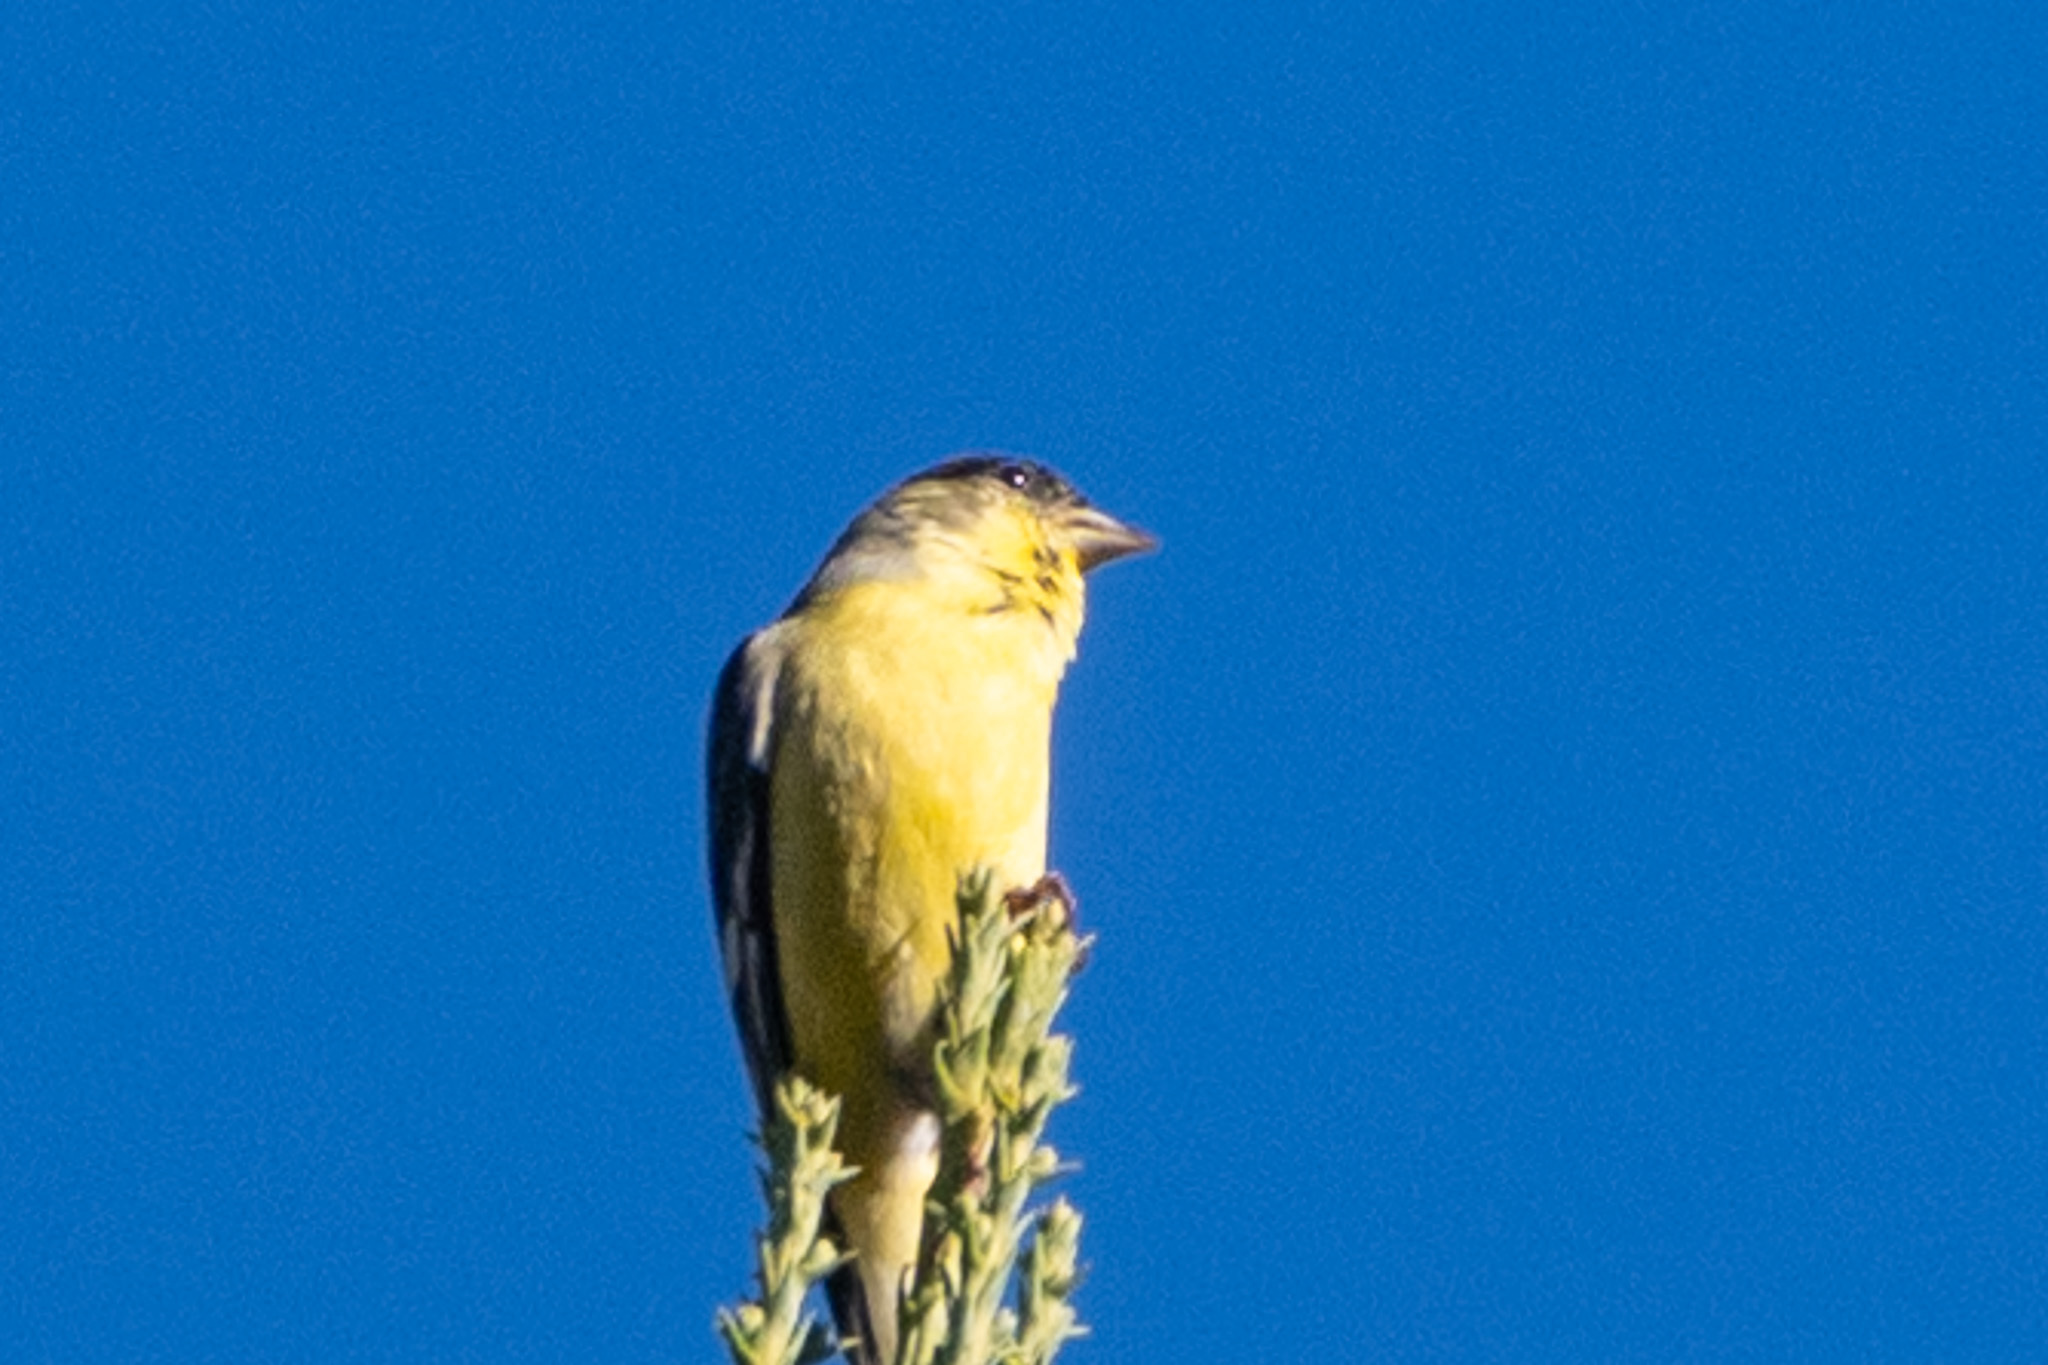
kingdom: Animalia
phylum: Chordata
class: Aves
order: Passeriformes
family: Fringillidae
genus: Spinus
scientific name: Spinus psaltria
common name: Lesser goldfinch
